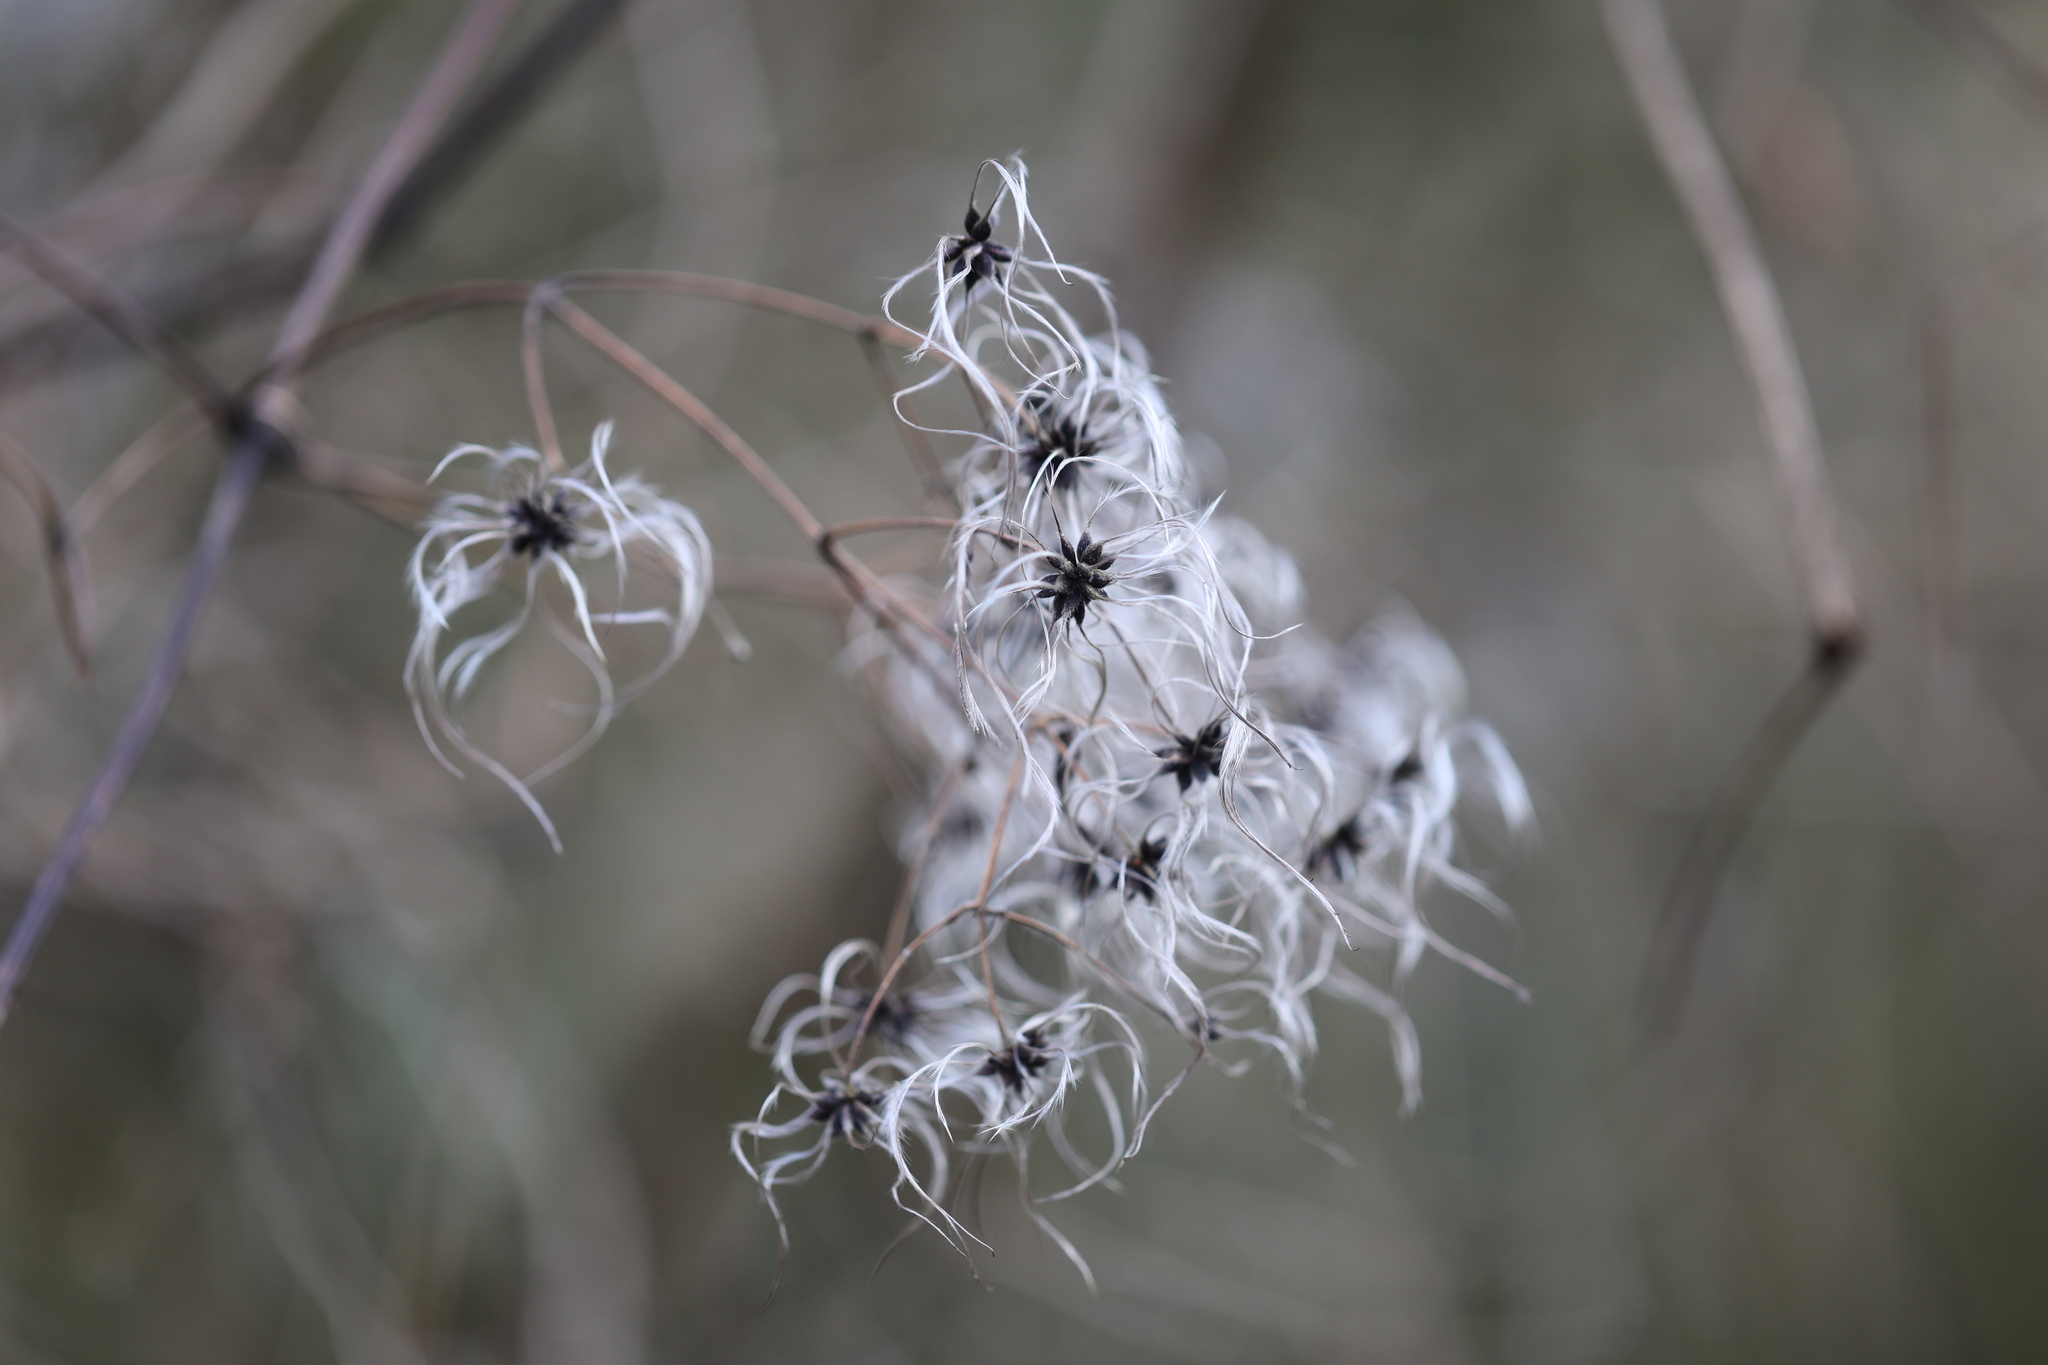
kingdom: Plantae
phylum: Tracheophyta
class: Magnoliopsida
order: Ranunculales
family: Ranunculaceae
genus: Clematis
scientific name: Clematis vitalba
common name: Evergreen clematis
